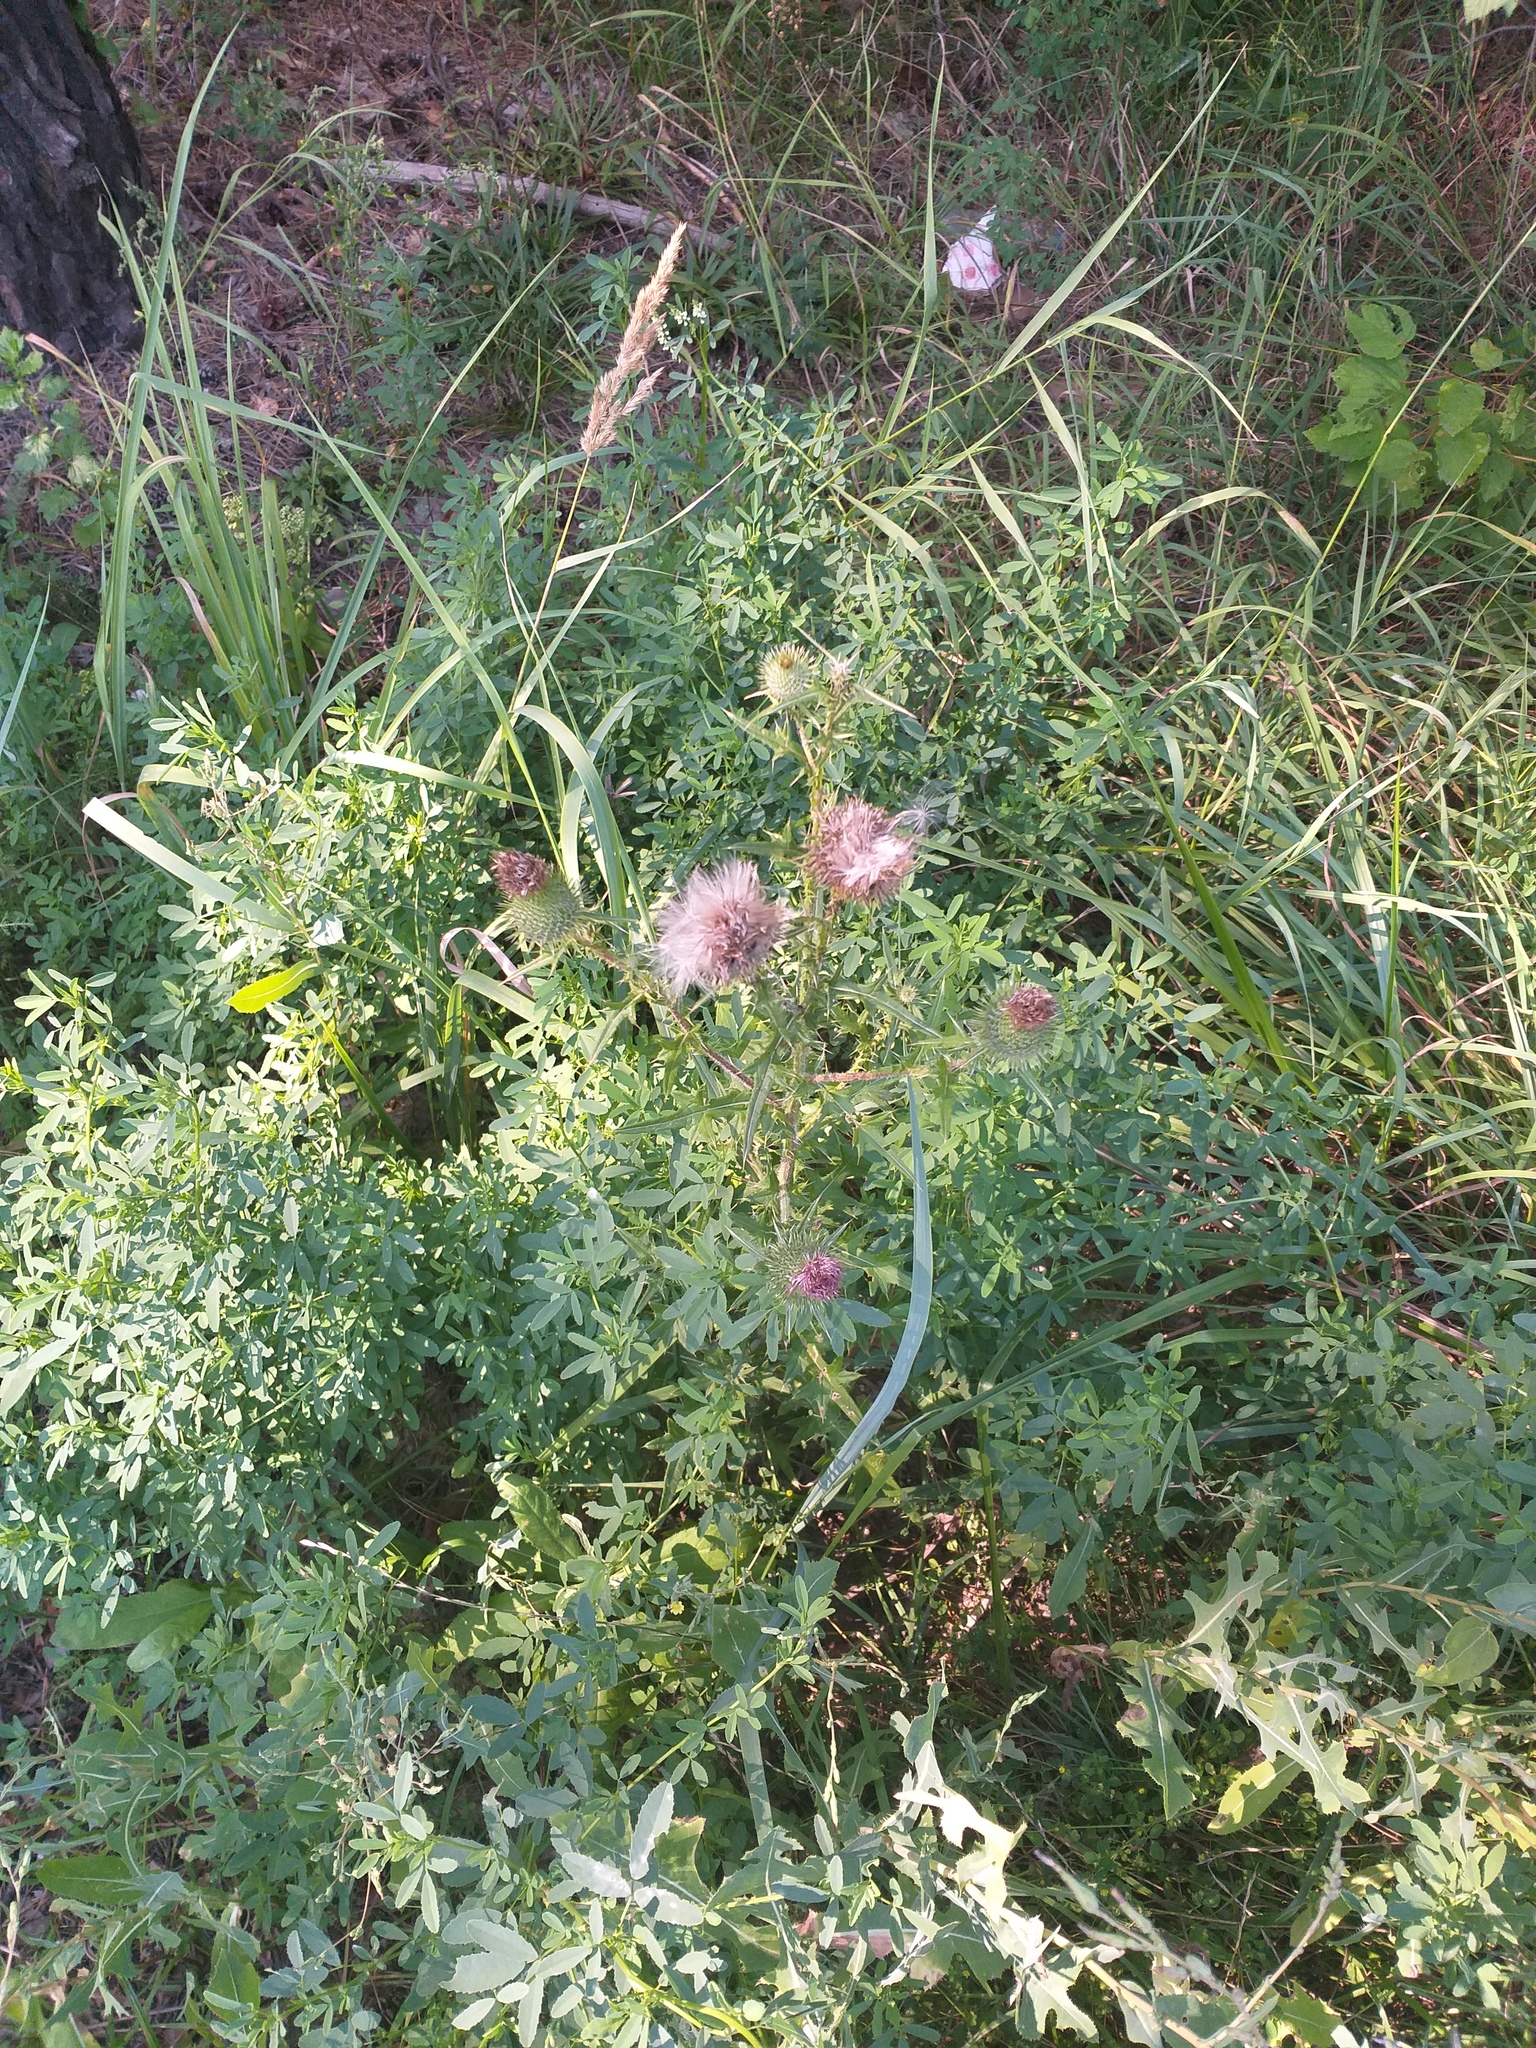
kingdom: Plantae
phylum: Tracheophyta
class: Magnoliopsida
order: Asterales
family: Asteraceae
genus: Cirsium
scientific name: Cirsium vulgare
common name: Bull thistle
